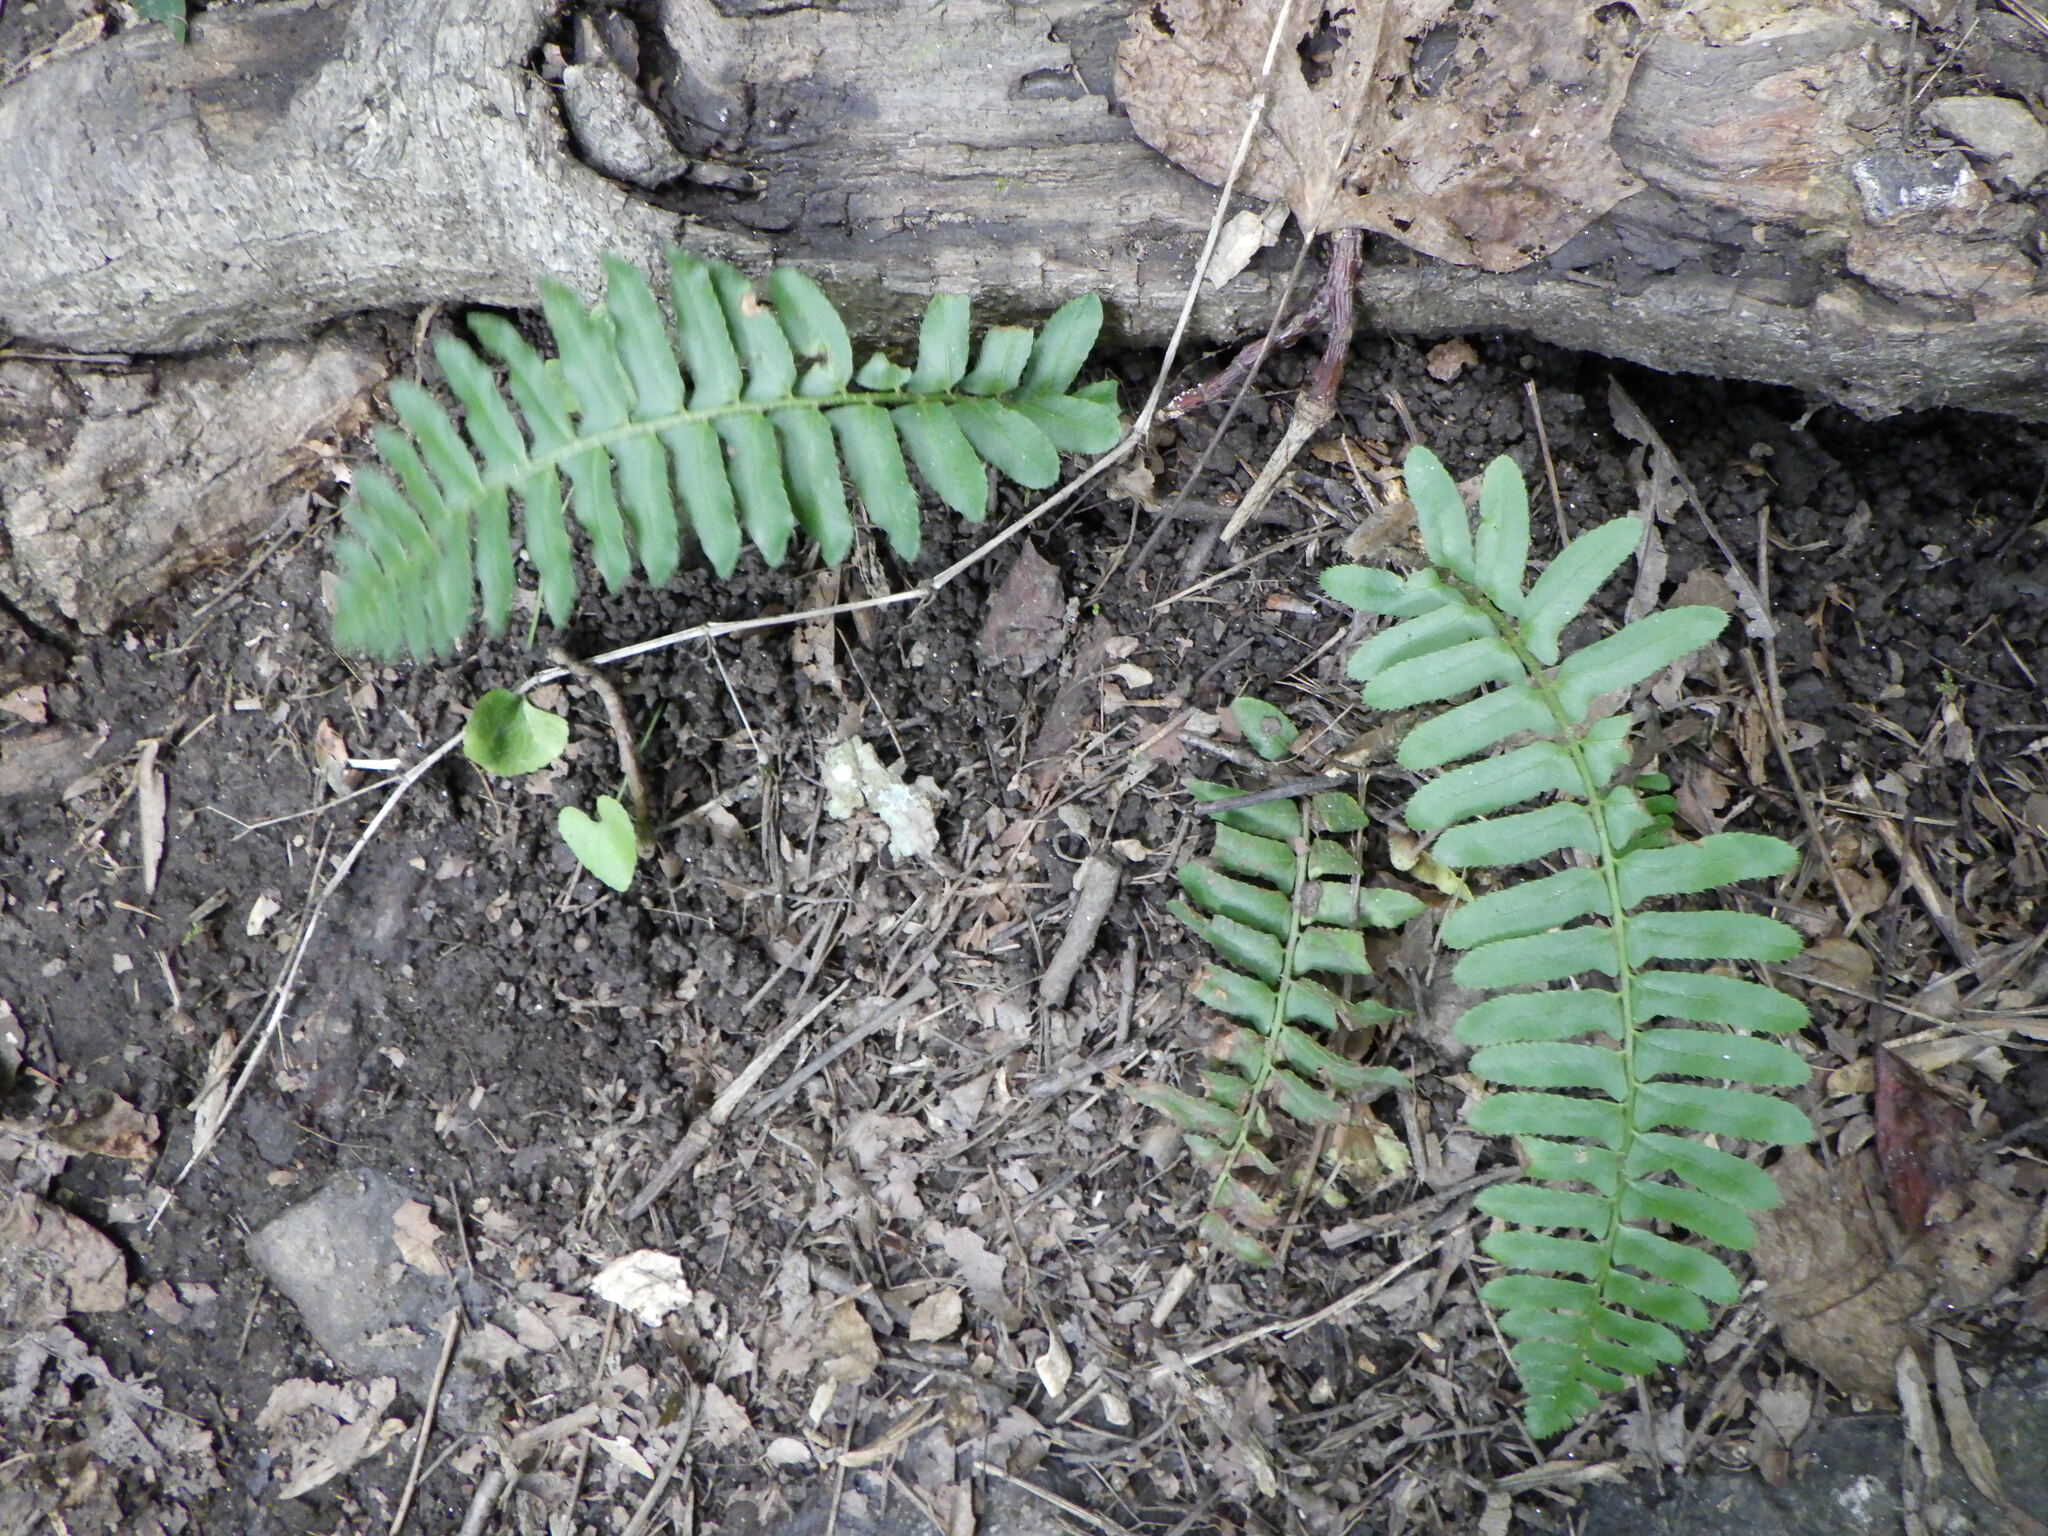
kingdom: Plantae
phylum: Tracheophyta
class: Polypodiopsida
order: Polypodiales
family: Dryopteridaceae
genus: Polystichum
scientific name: Polystichum acrostichoides
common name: Christmas fern
